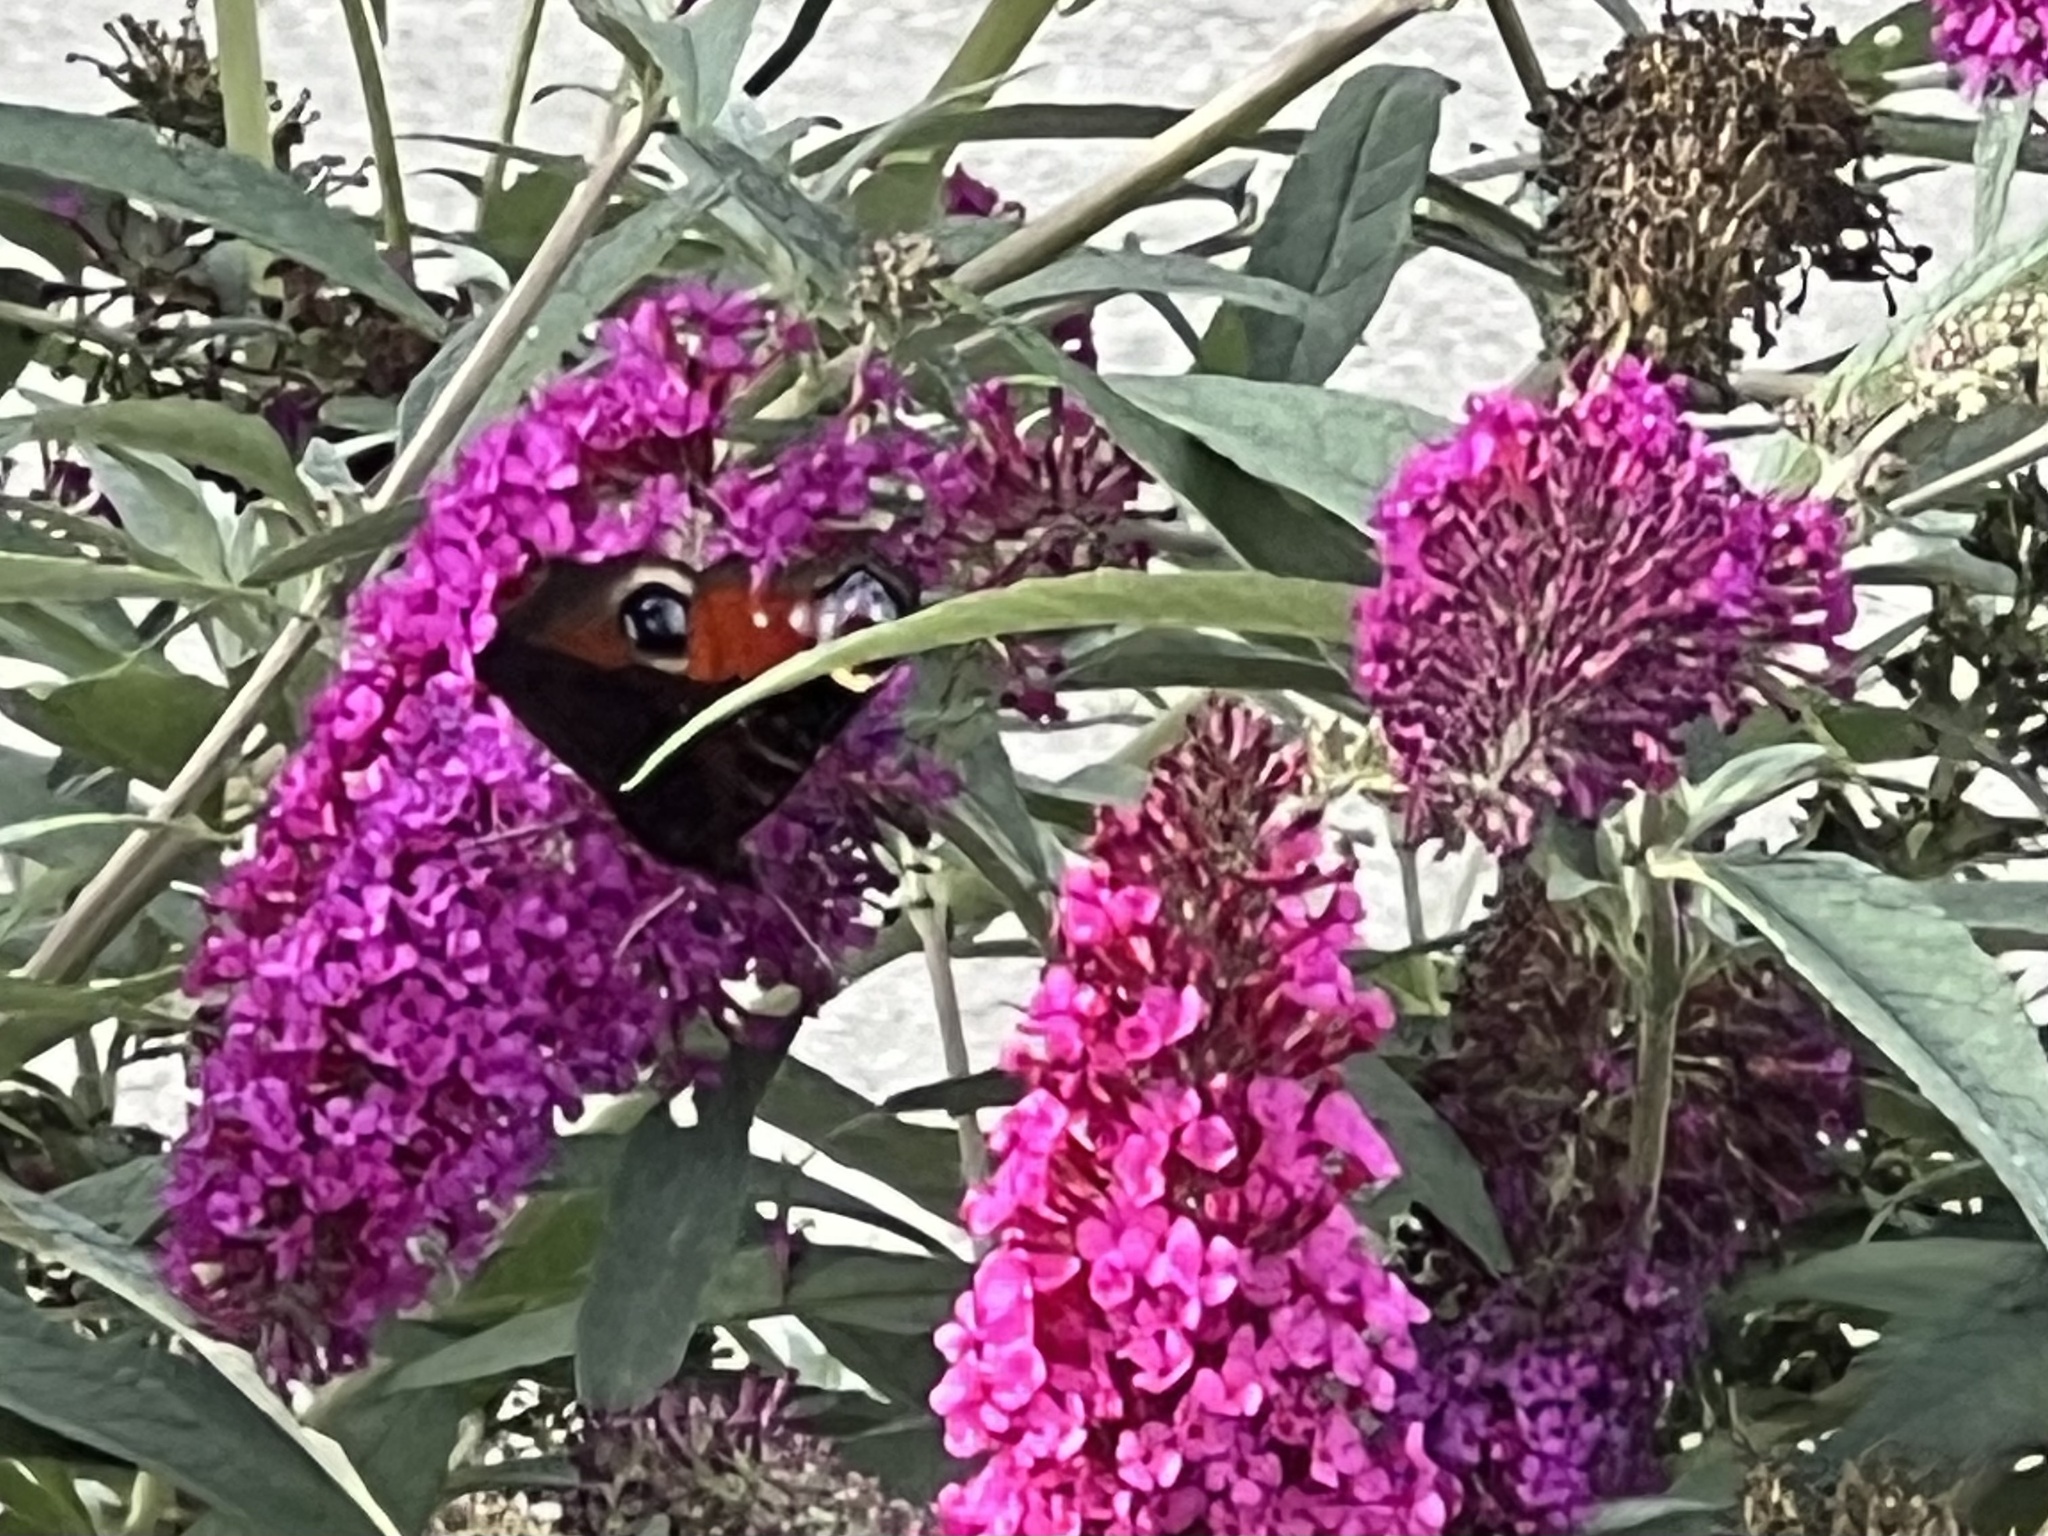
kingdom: Animalia
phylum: Arthropoda
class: Insecta
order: Lepidoptera
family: Nymphalidae
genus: Aglais
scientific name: Aglais io
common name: Peacock
